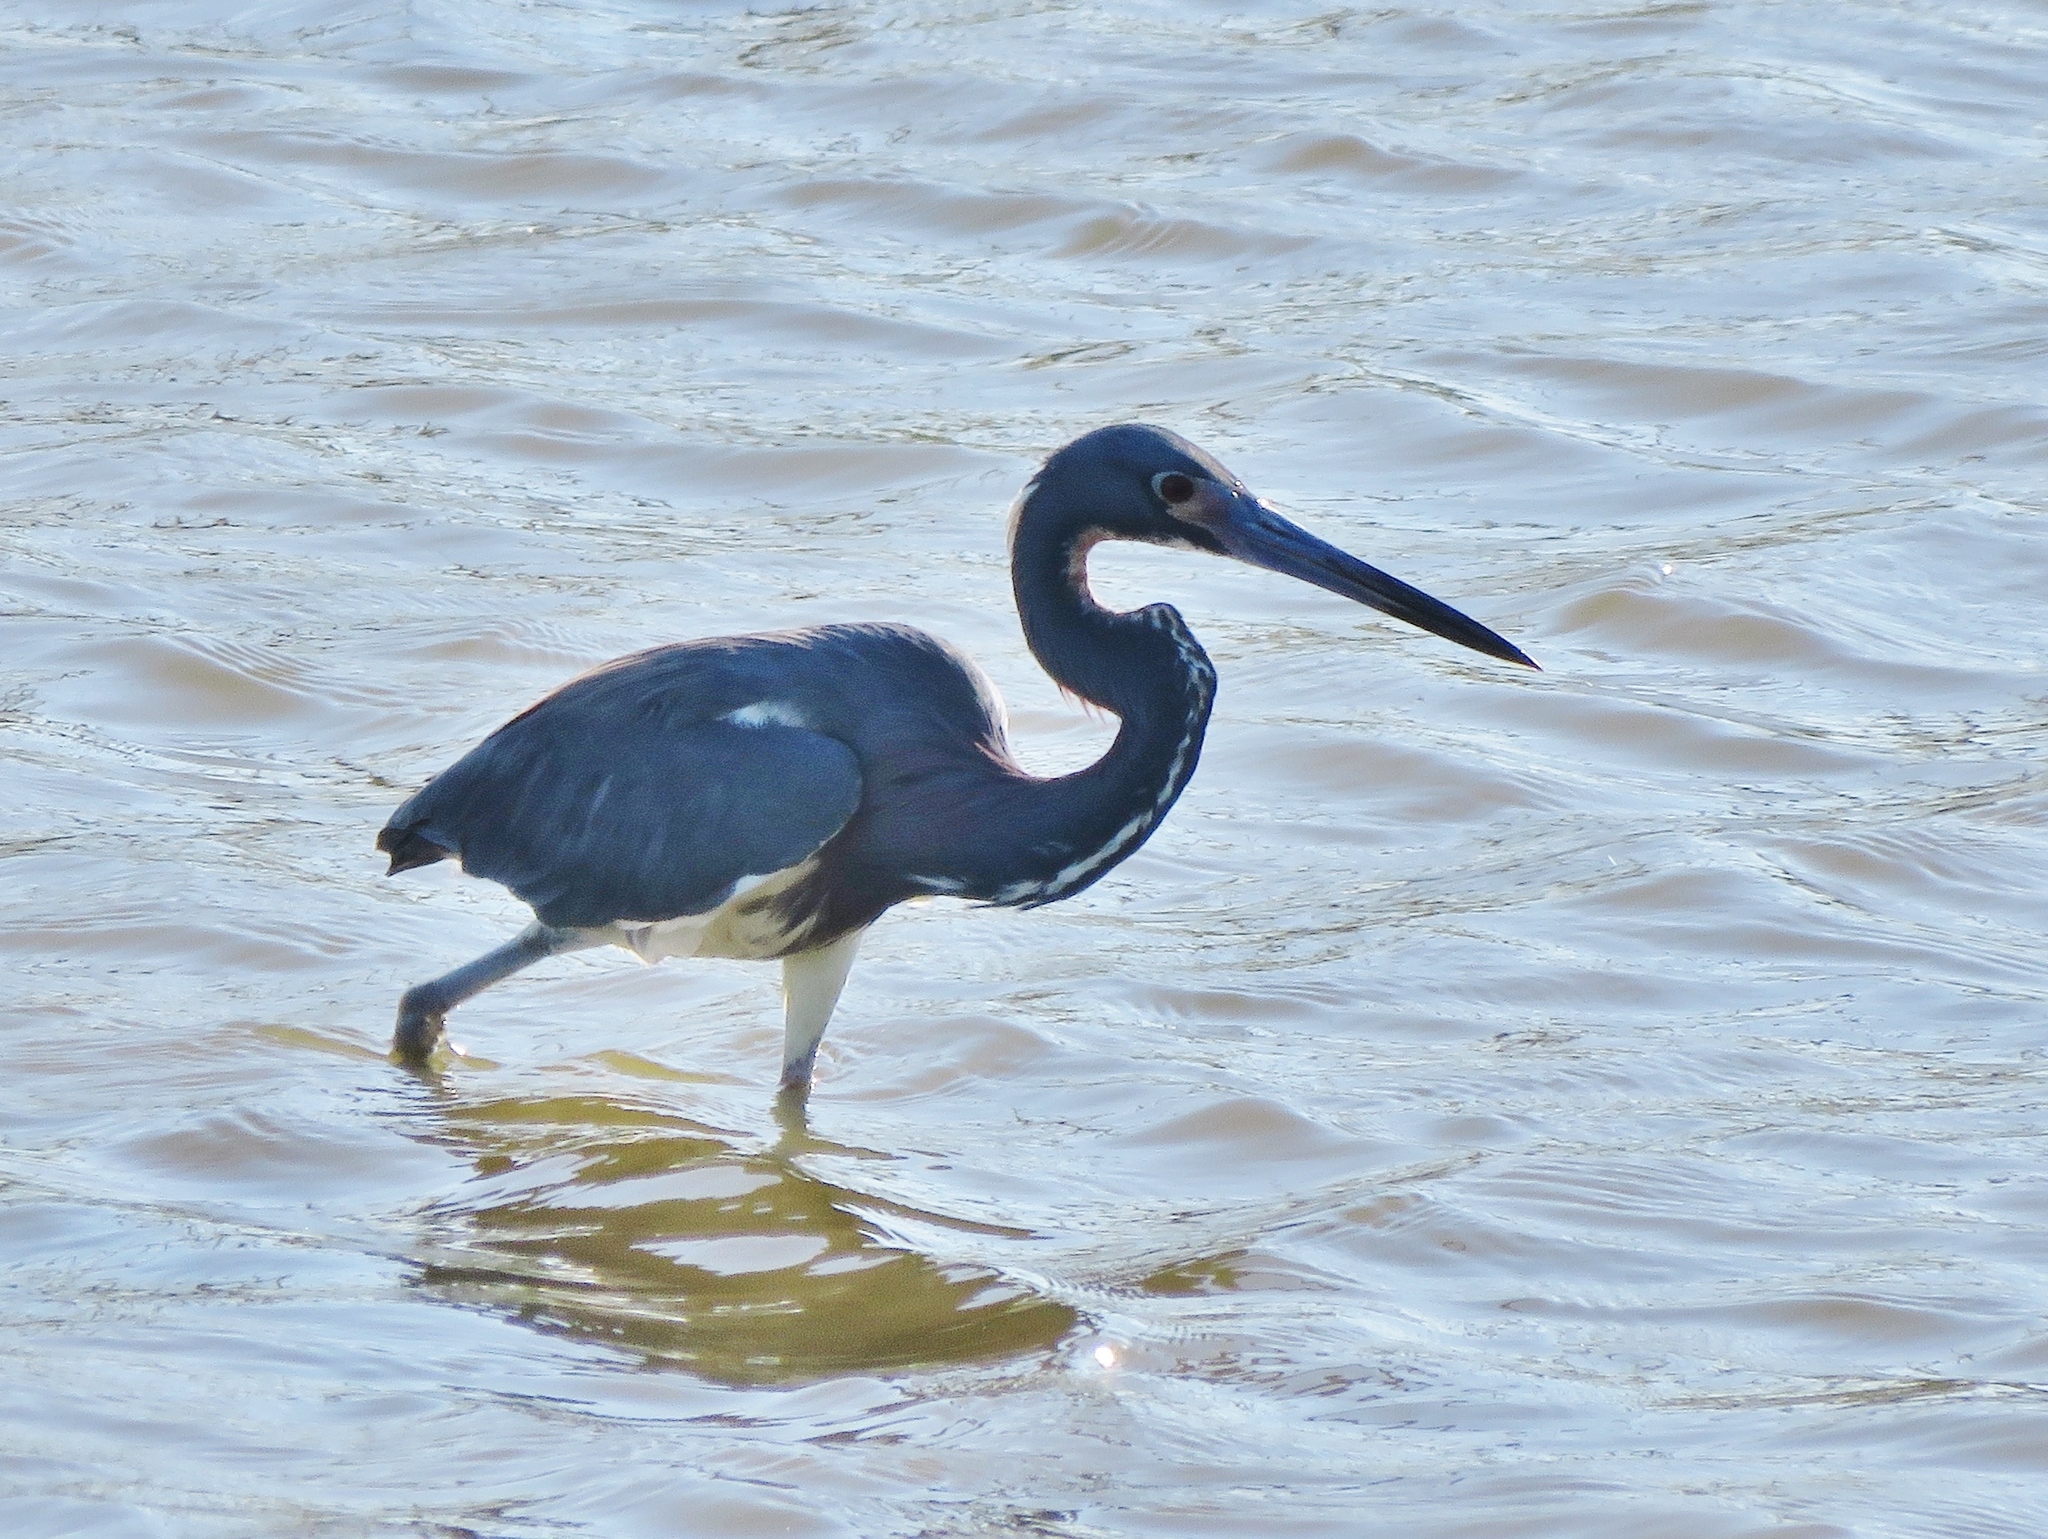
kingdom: Animalia
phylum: Chordata
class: Aves
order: Pelecaniformes
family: Ardeidae
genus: Egretta
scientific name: Egretta tricolor
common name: Tricolored heron
